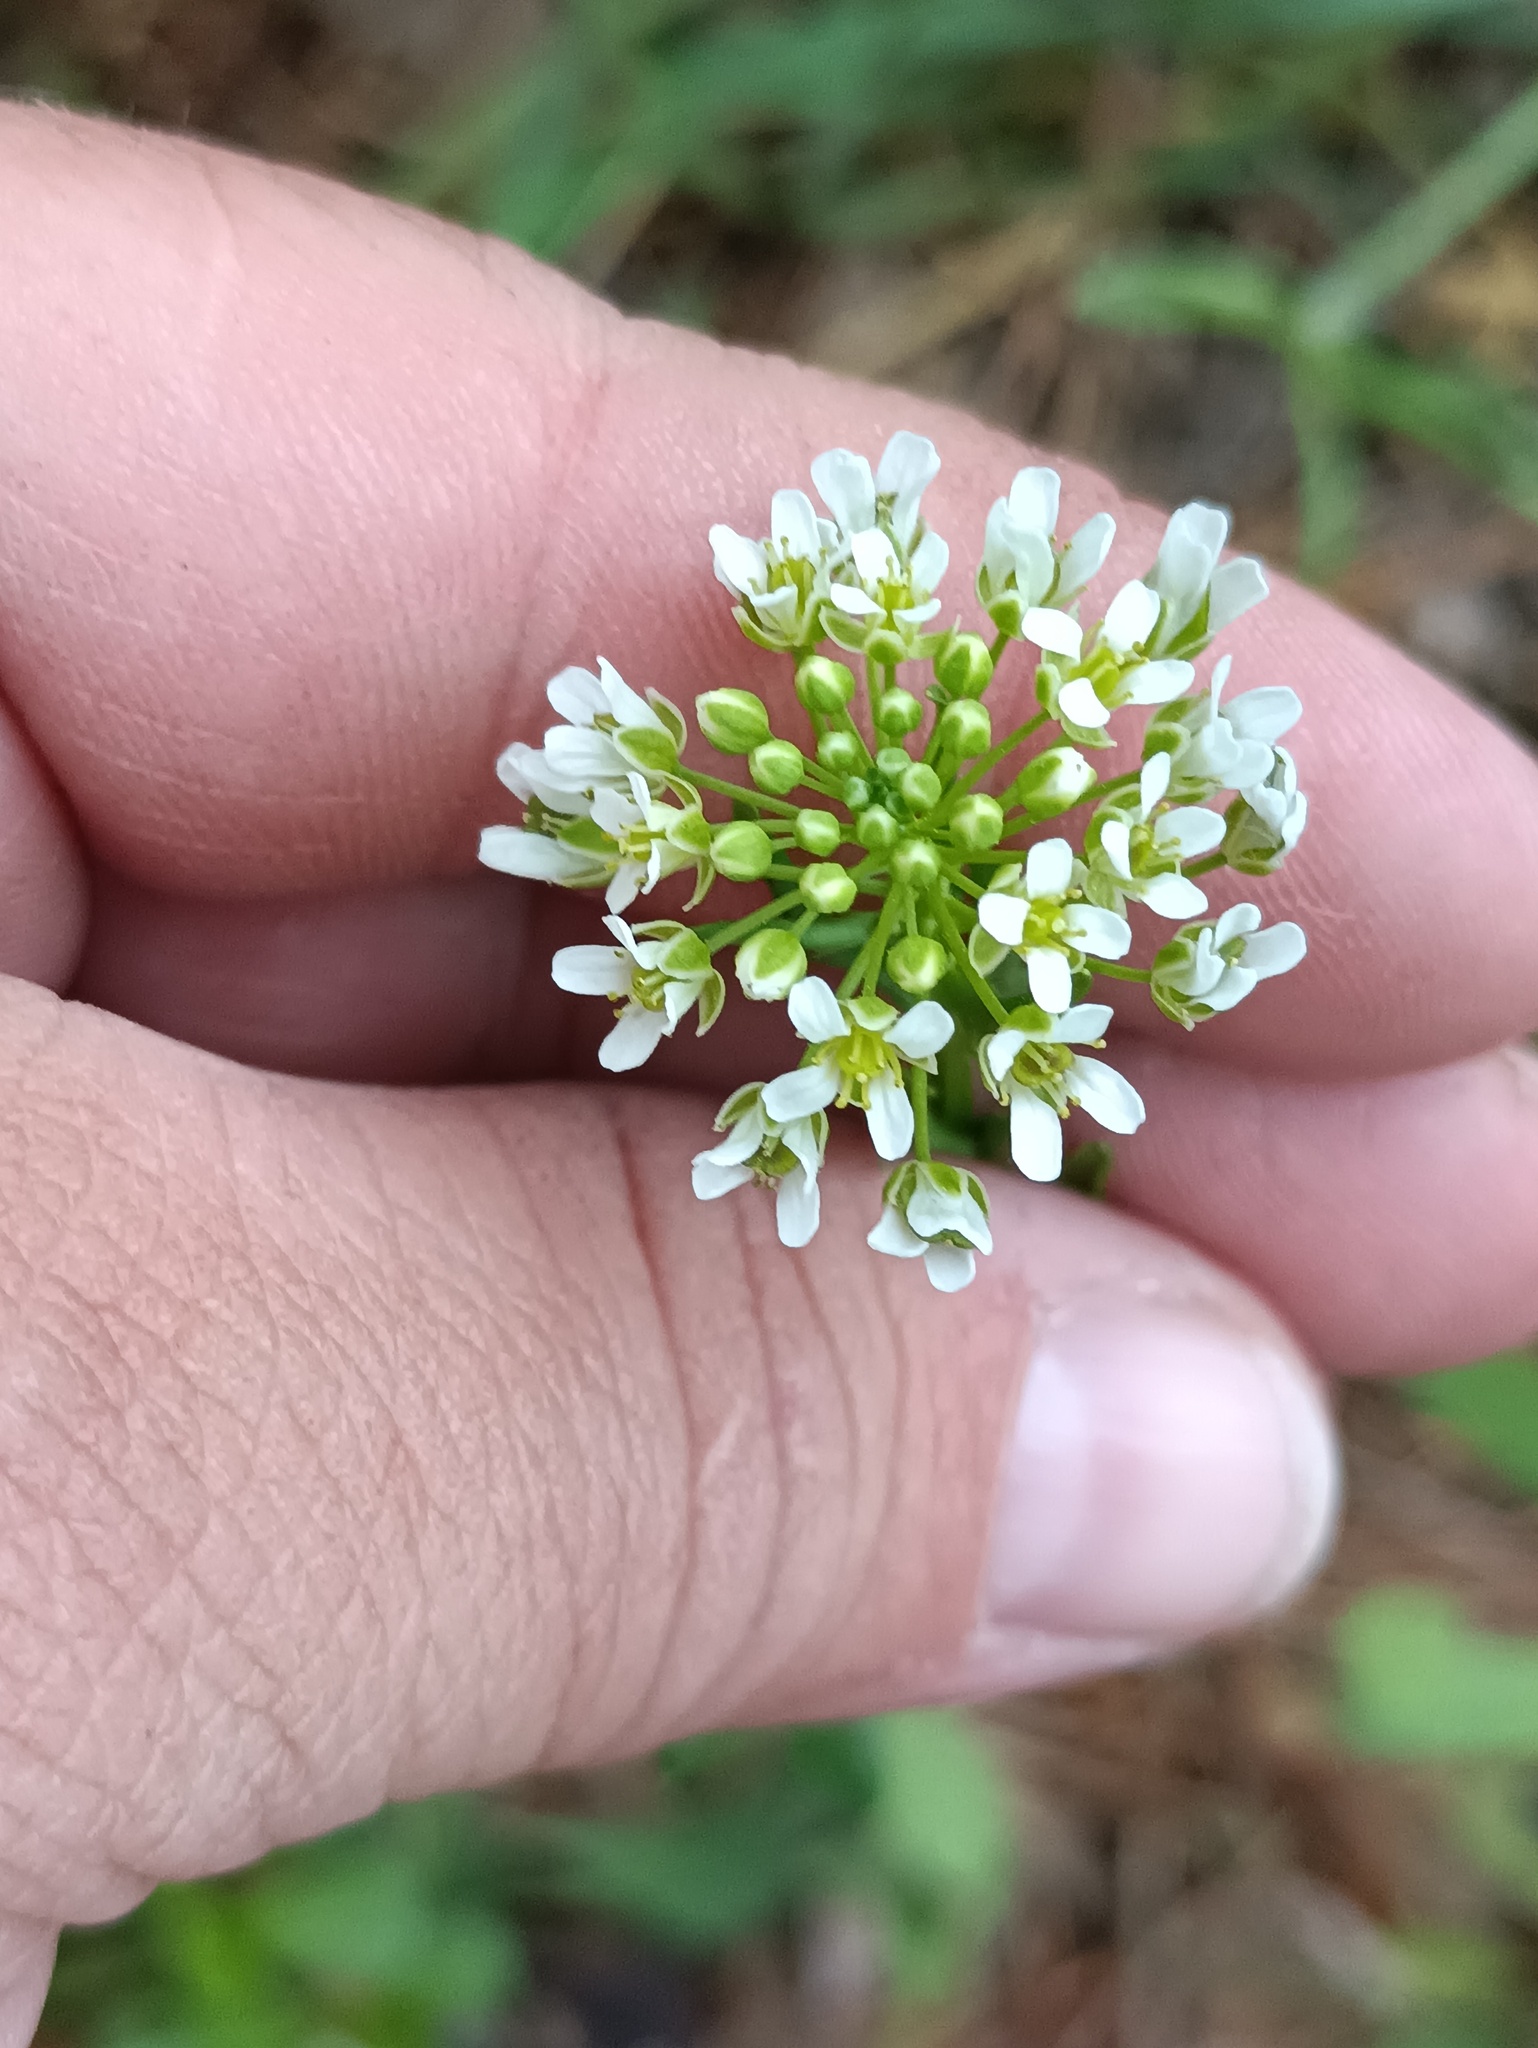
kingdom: Plantae
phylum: Tracheophyta
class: Magnoliopsida
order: Brassicales
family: Brassicaceae
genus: Thlaspi
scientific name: Thlaspi arvense
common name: Field pennycress
